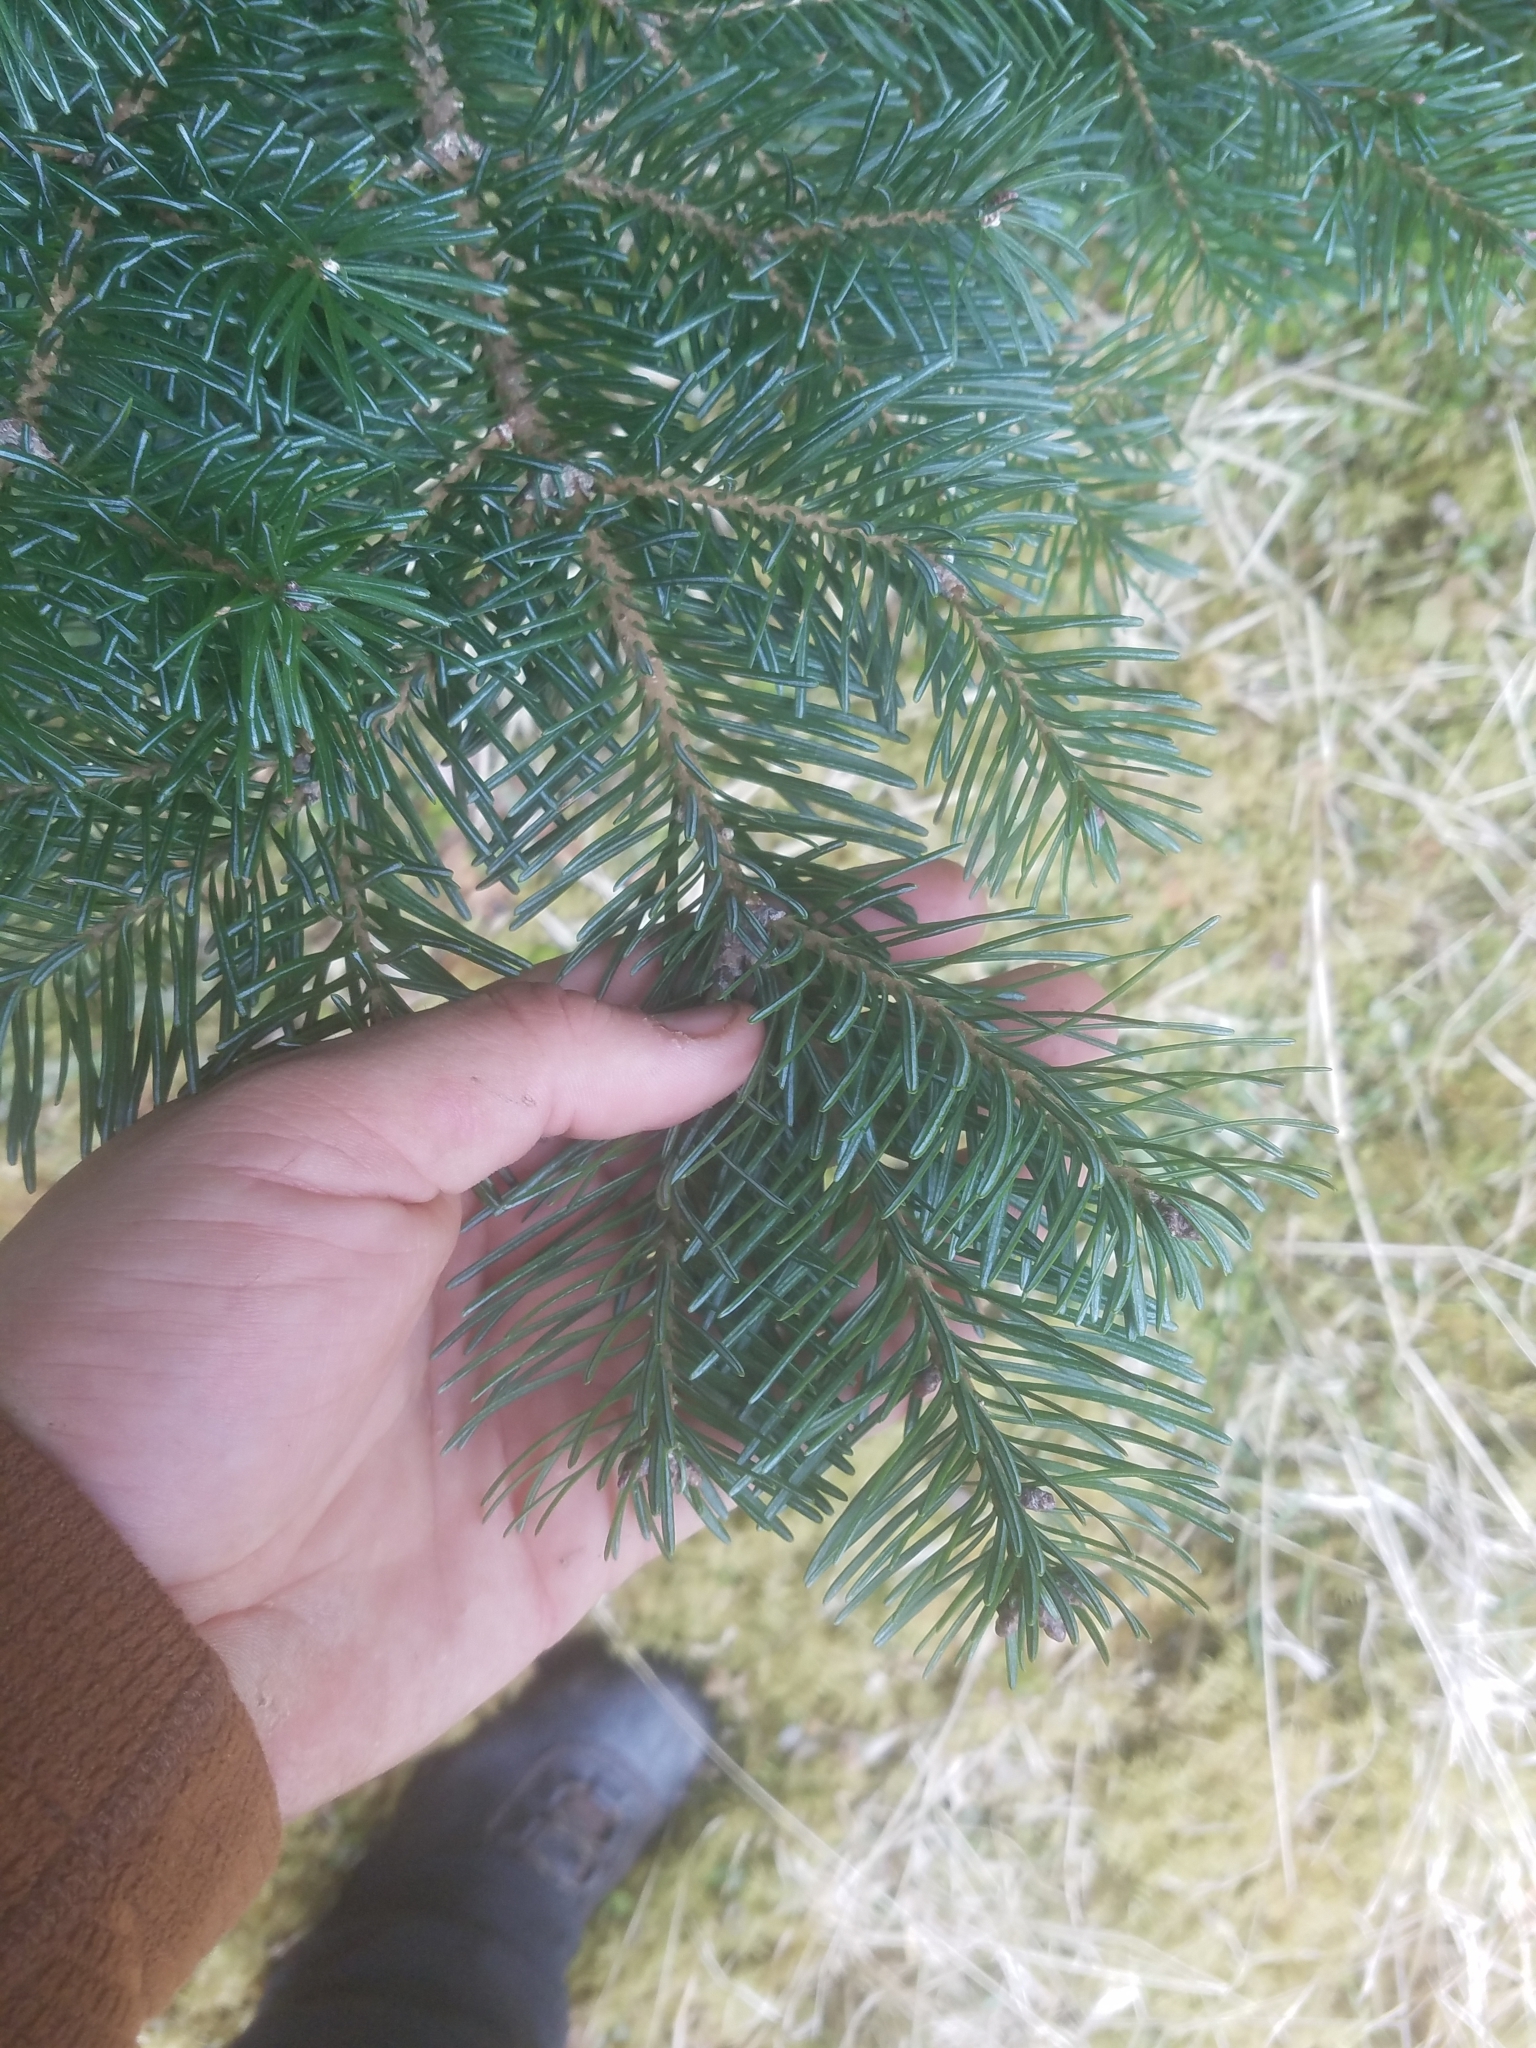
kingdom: Plantae
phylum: Tracheophyta
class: Pinopsida
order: Pinales
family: Pinaceae
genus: Abies
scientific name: Abies lasiocarpa
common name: Subalpine fir
